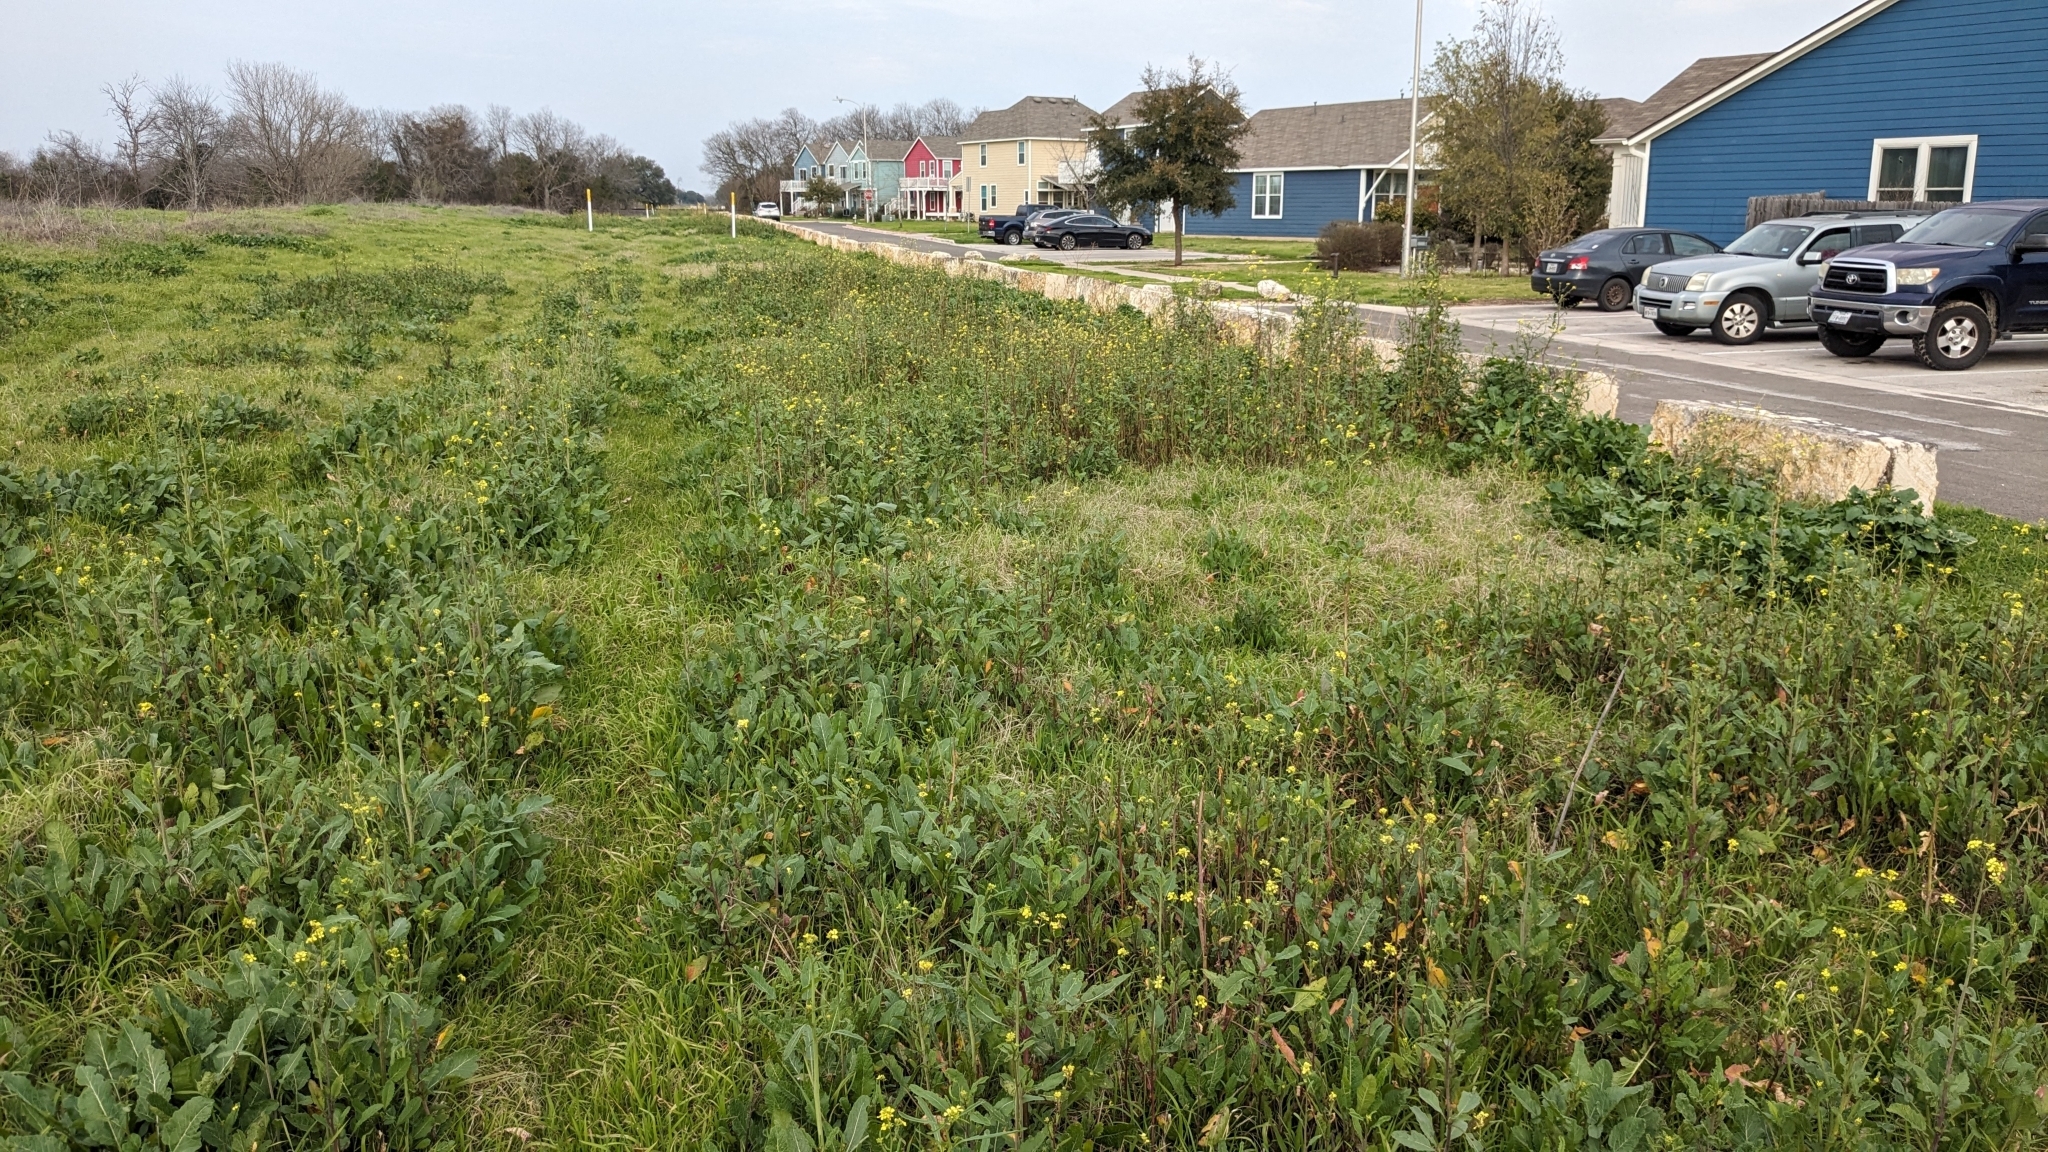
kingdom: Plantae
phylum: Tracheophyta
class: Magnoliopsida
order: Brassicales
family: Brassicaceae
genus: Rapistrum
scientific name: Rapistrum rugosum
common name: Annual bastardcabbage
